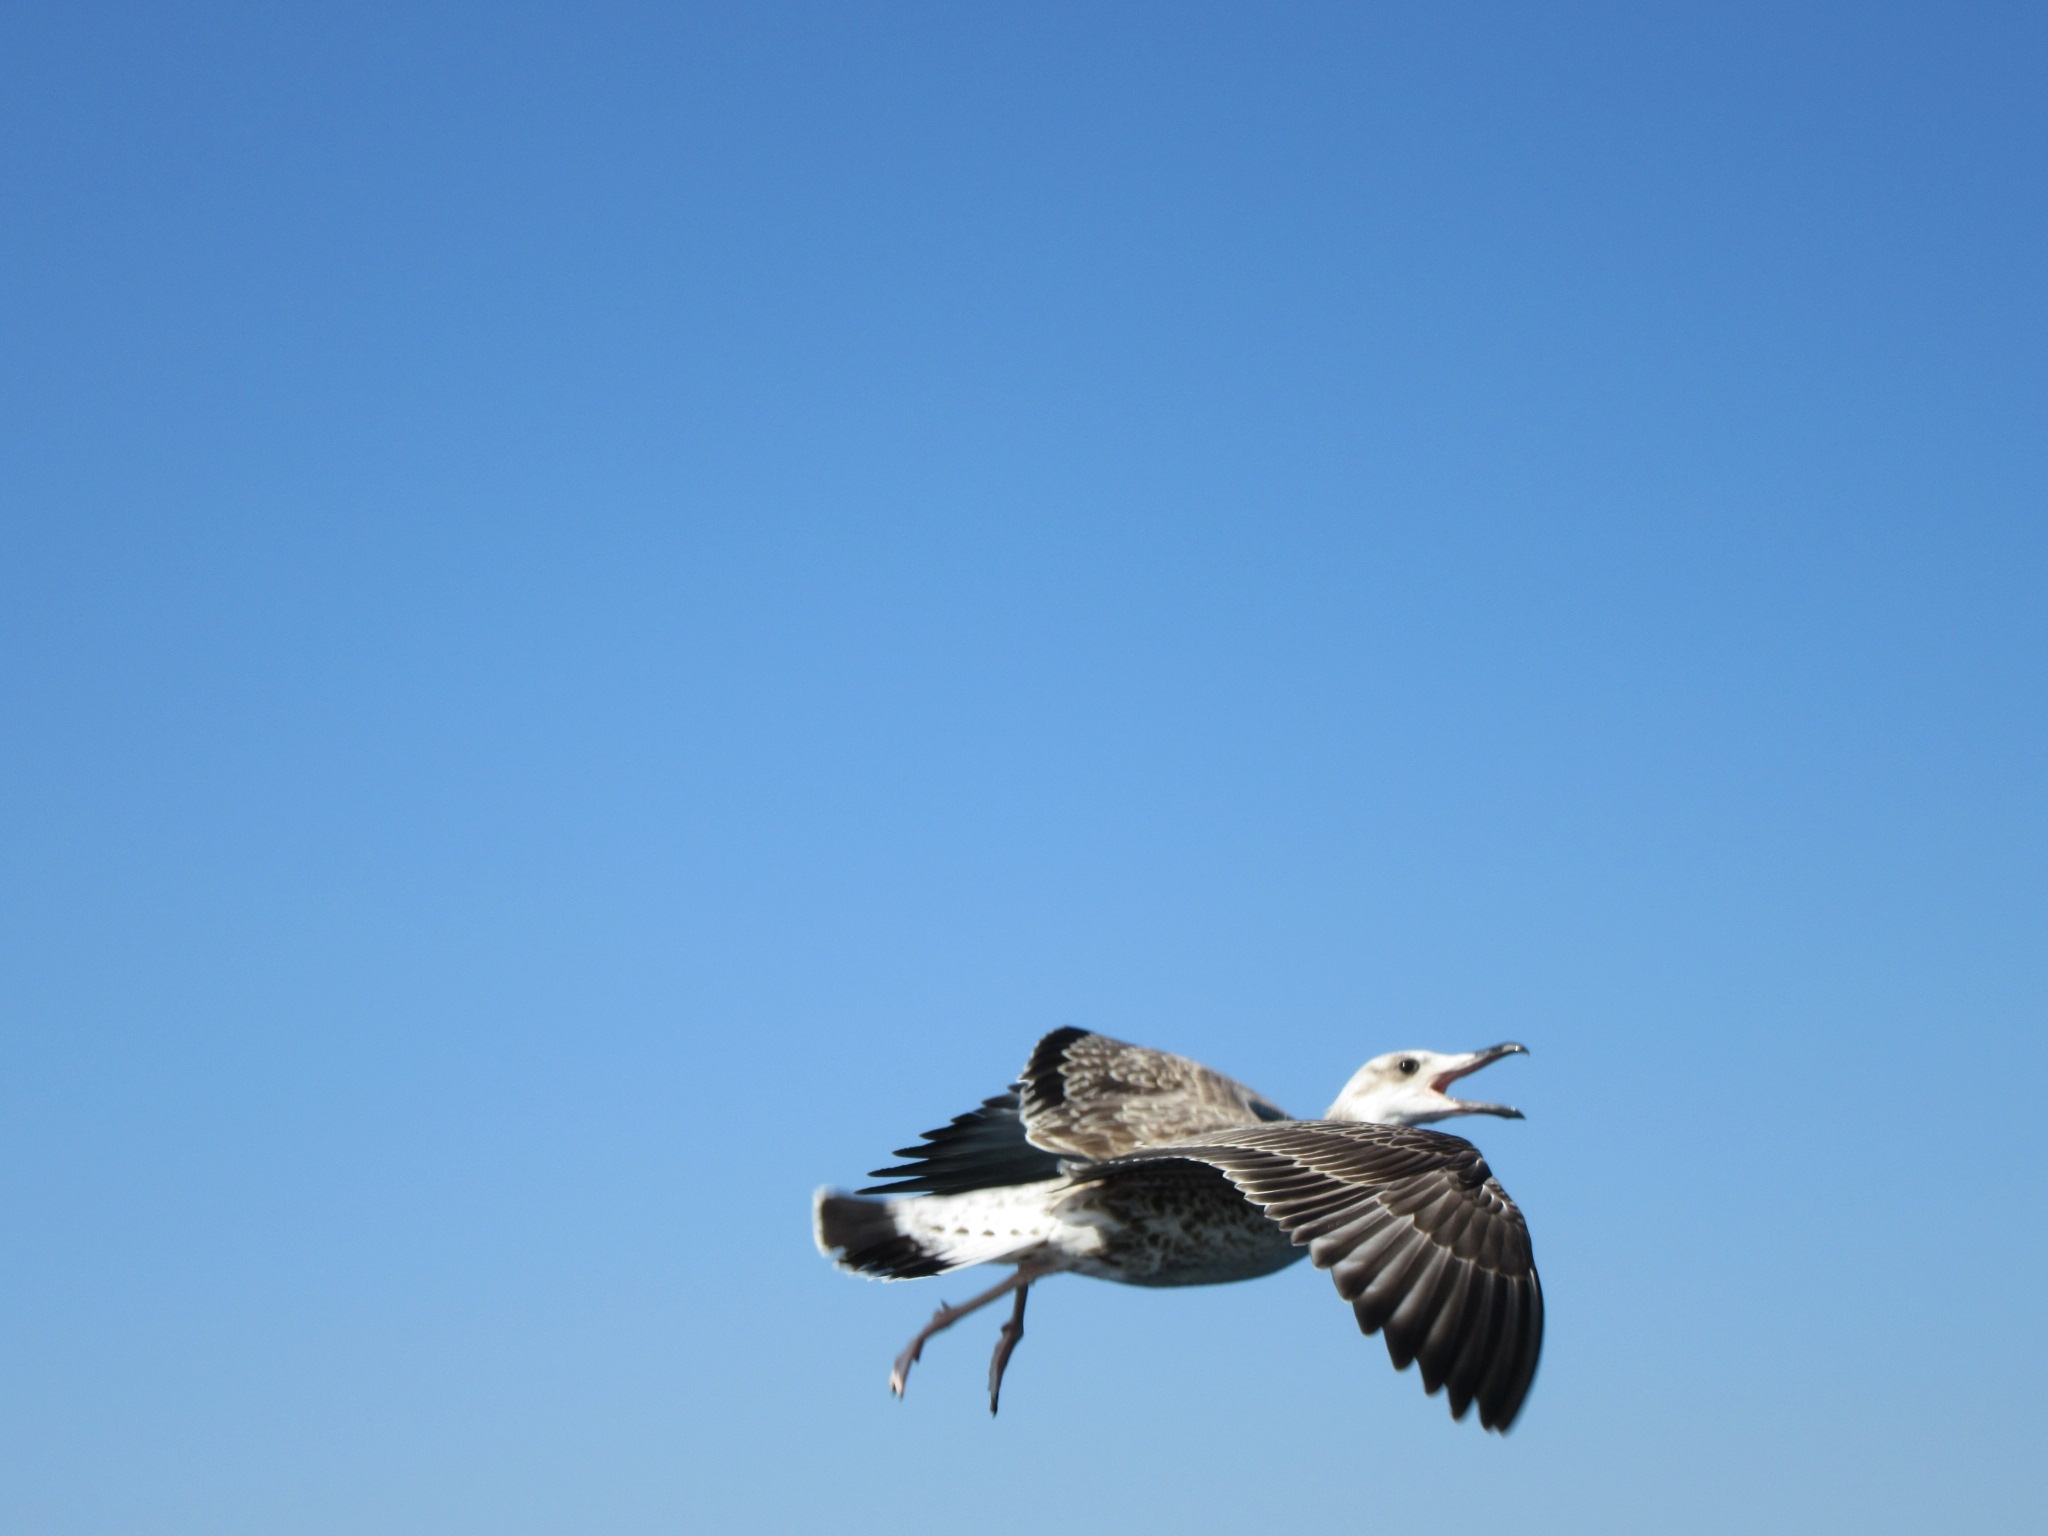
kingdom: Animalia
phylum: Chordata
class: Aves
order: Charadriiformes
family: Laridae
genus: Larus
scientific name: Larus michahellis
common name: Yellow-legged gull
